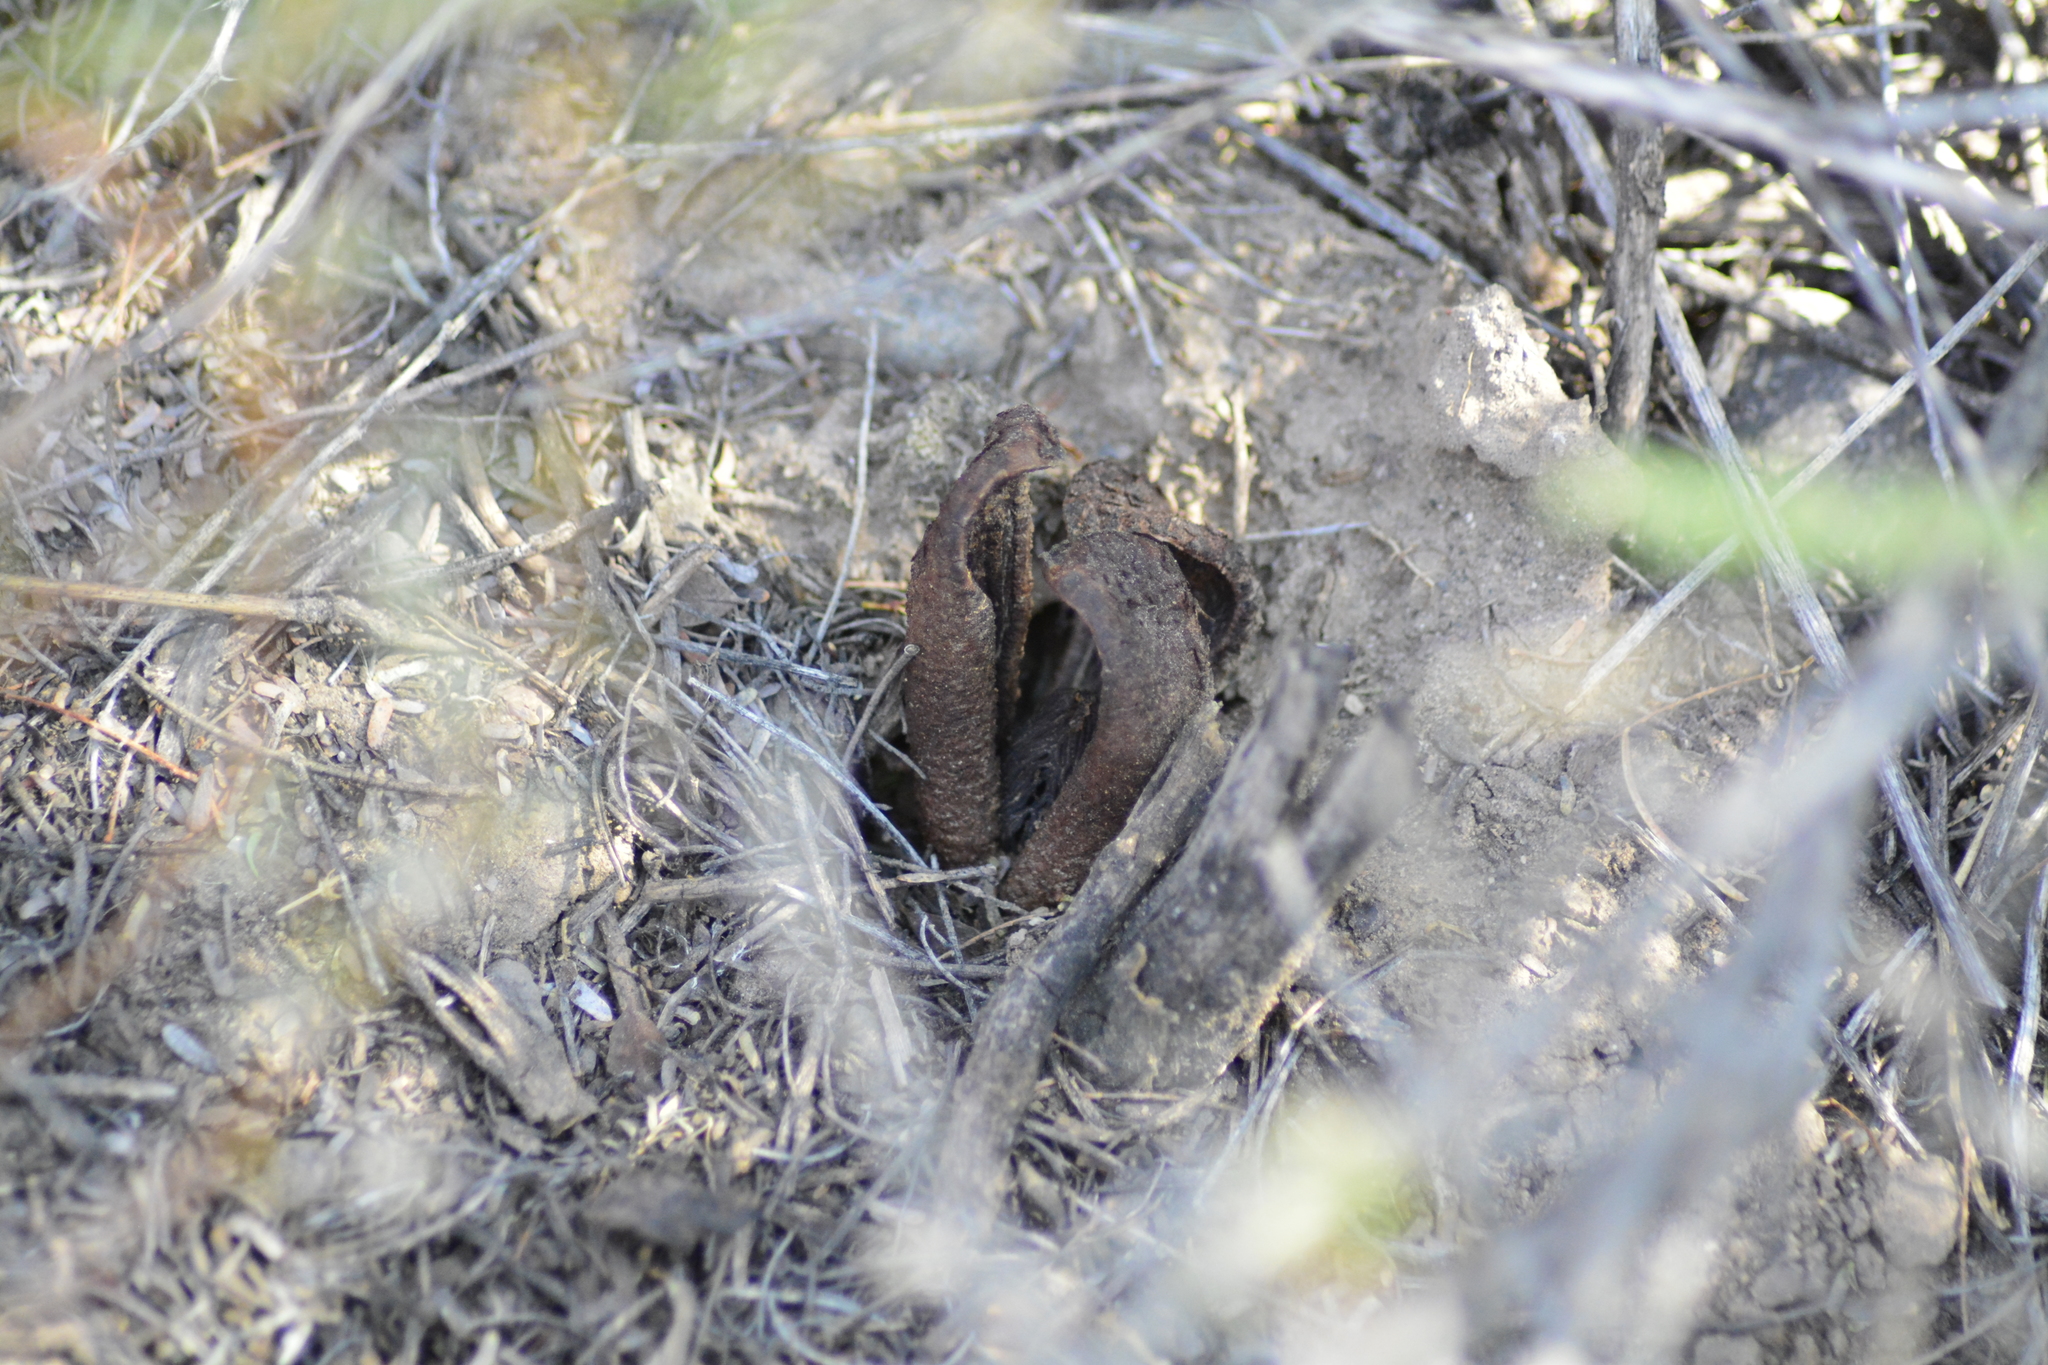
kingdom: Plantae
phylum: Tracheophyta
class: Magnoliopsida
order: Piperales
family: Hydnoraceae
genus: Prosopanche
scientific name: Prosopanche americana
